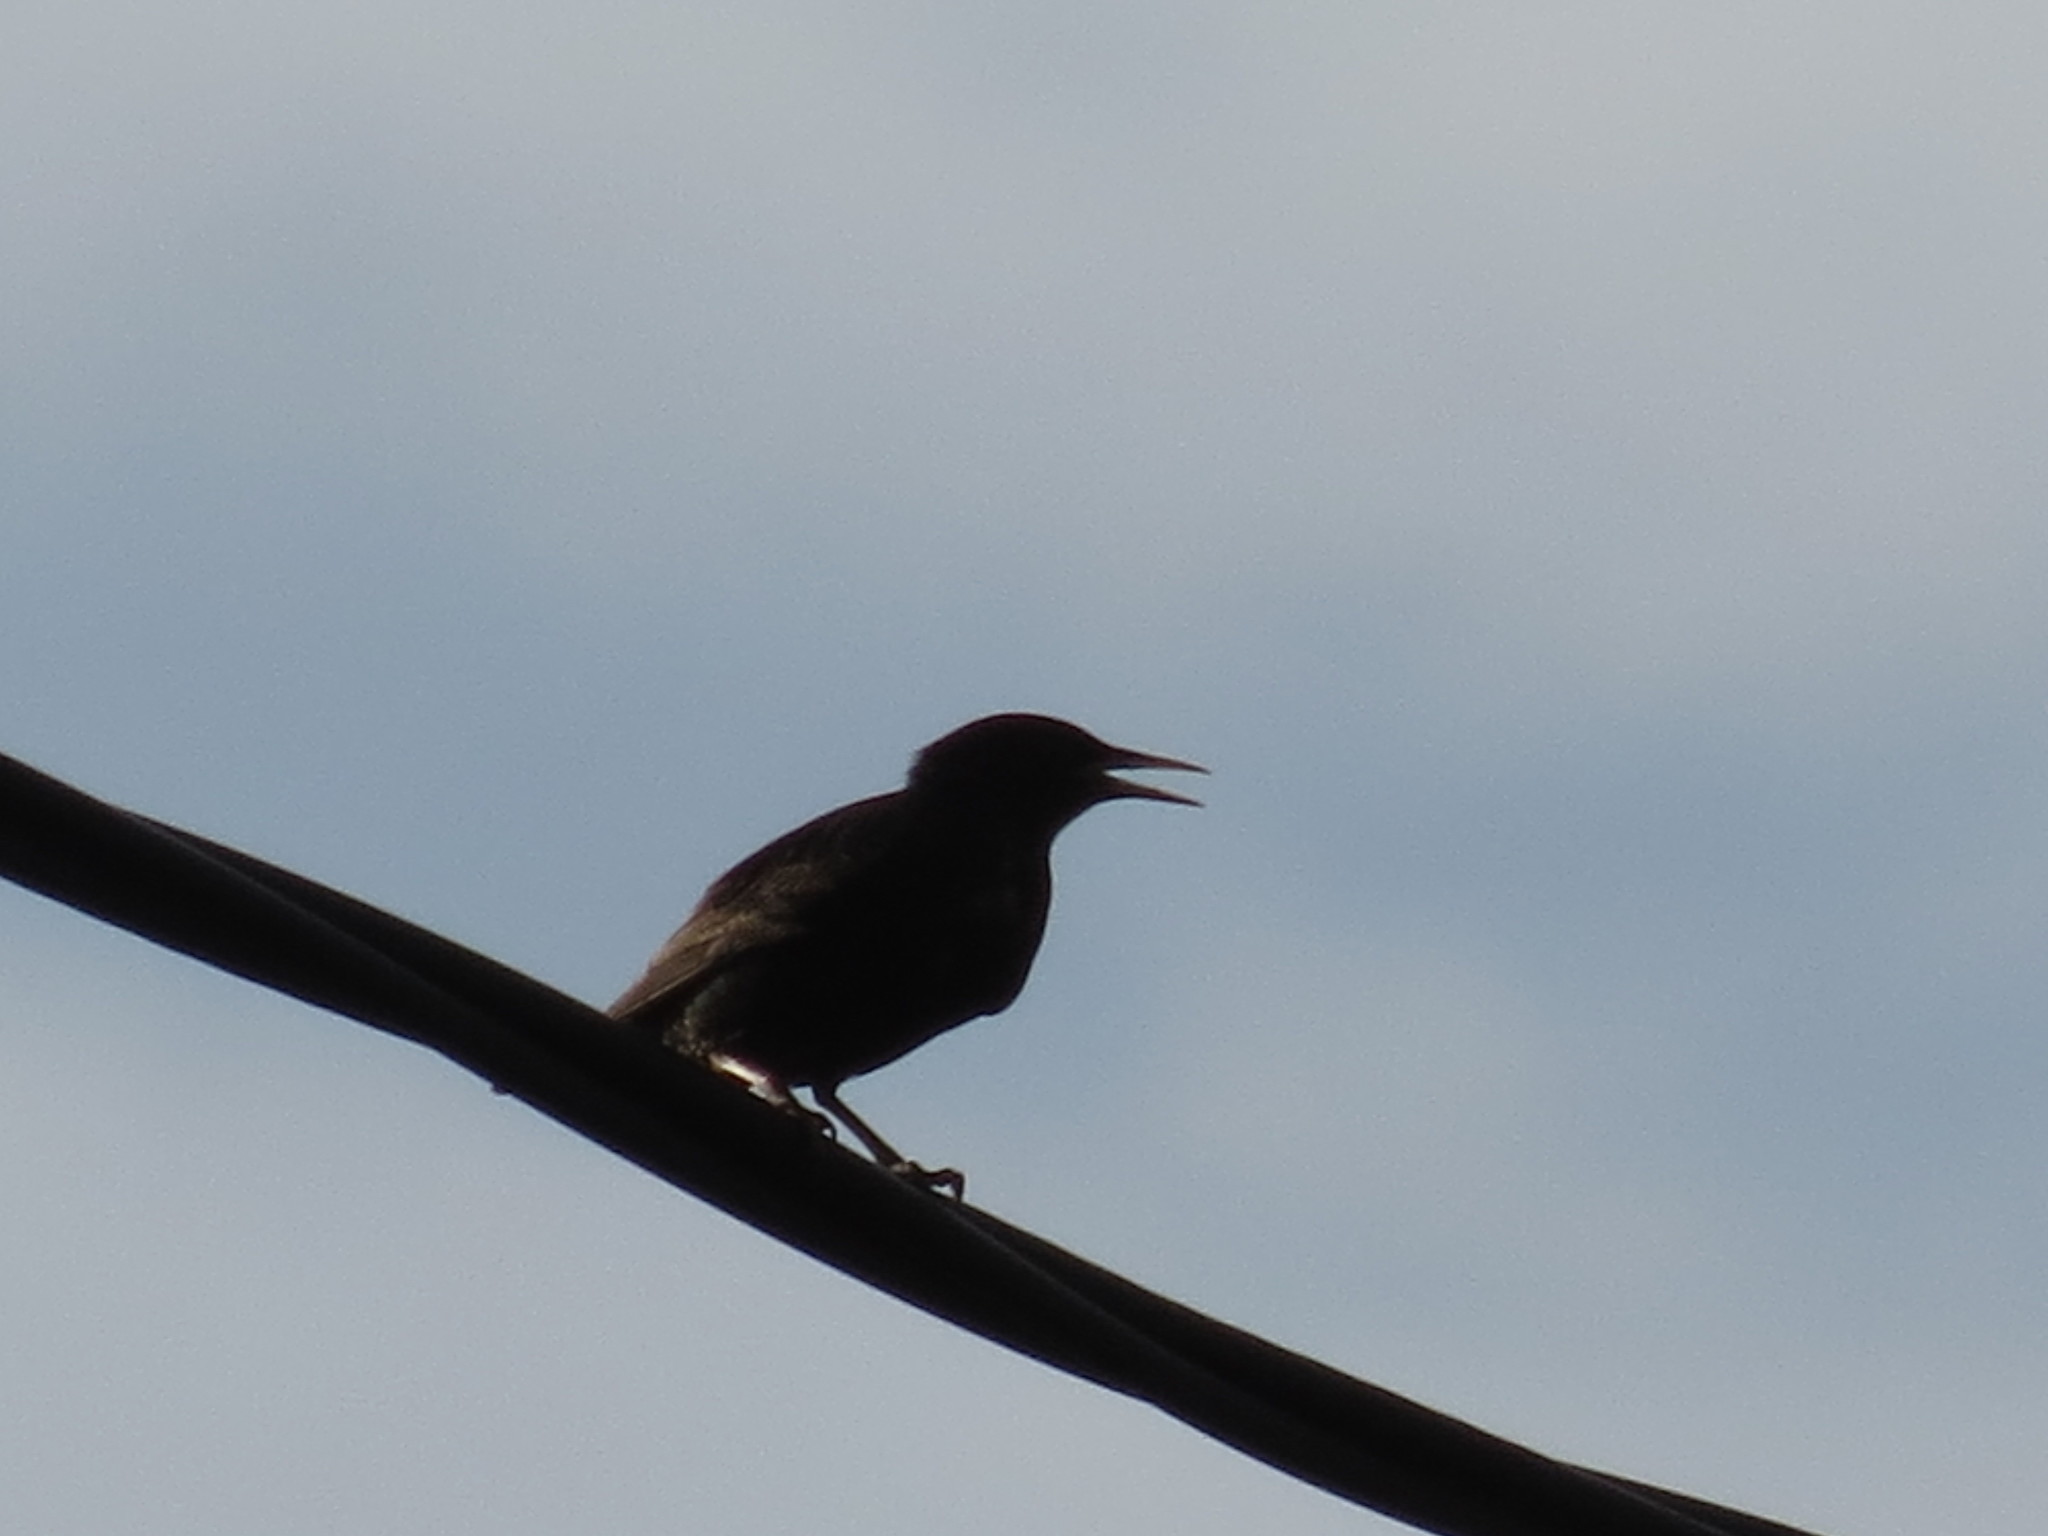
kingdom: Animalia
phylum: Chordata
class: Aves
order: Passeriformes
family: Sturnidae
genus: Sturnus
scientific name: Sturnus vulgaris
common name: Common starling
